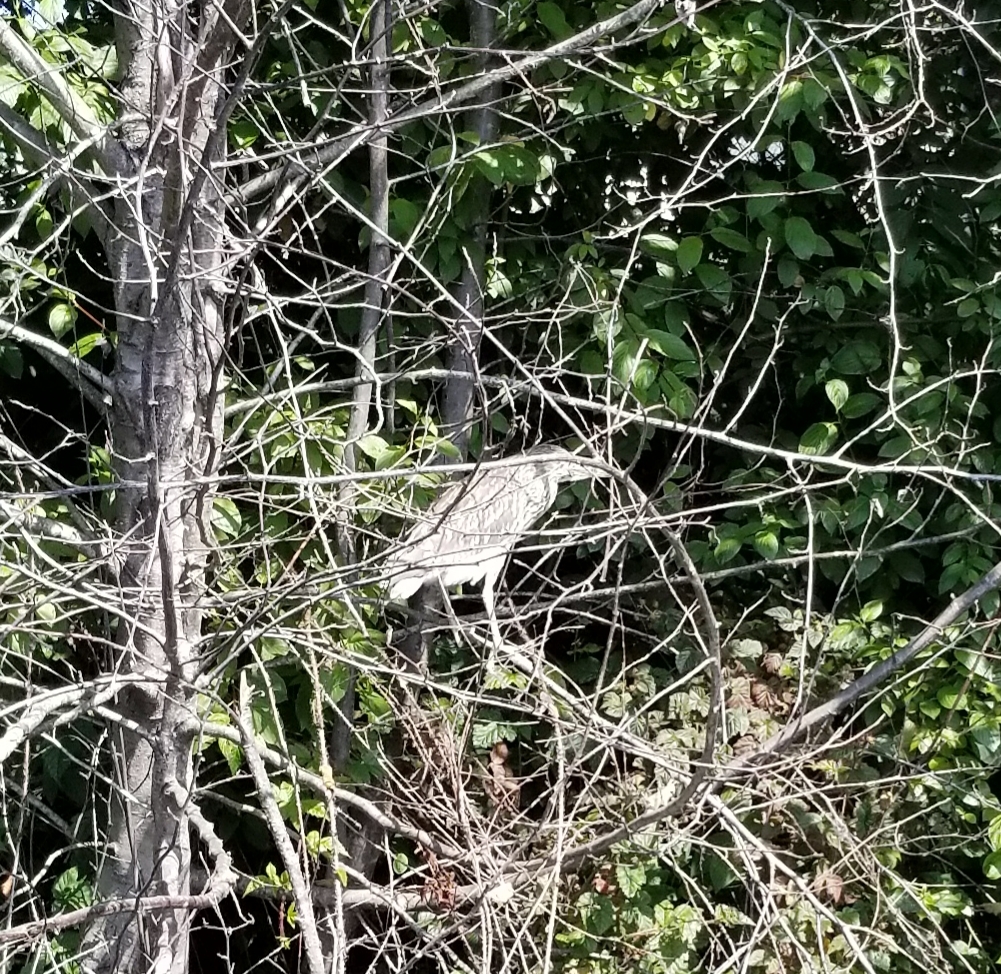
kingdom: Animalia
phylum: Chordata
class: Aves
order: Pelecaniformes
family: Ardeidae
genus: Nycticorax
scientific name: Nycticorax nycticorax
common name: Black-crowned night heron
